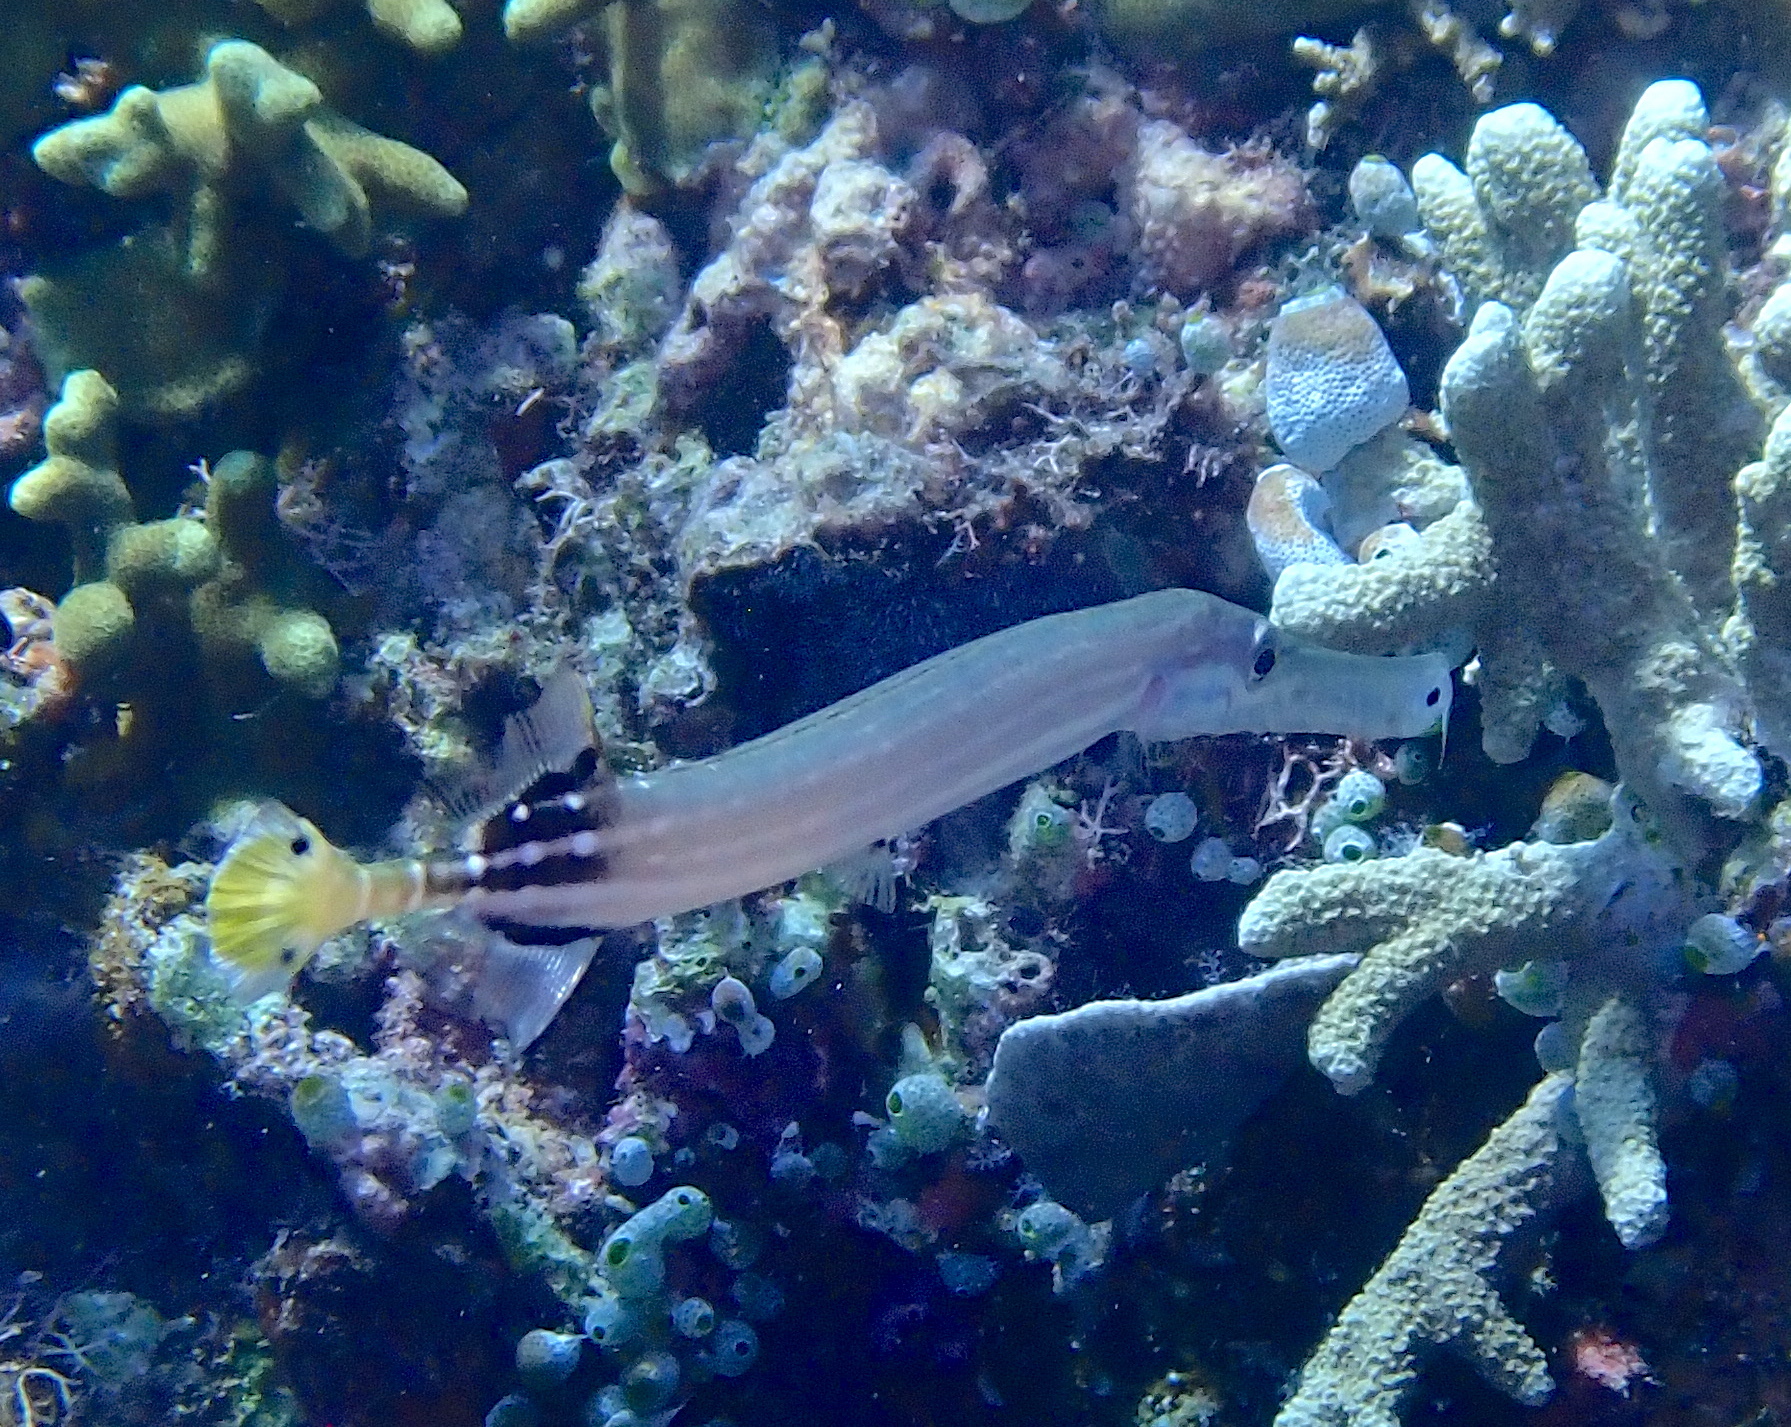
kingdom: Animalia
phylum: Chordata
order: Syngnathiformes
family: Aulostomidae
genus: Aulostomus
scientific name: Aulostomus chinensis
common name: Chinese trumpetfish
